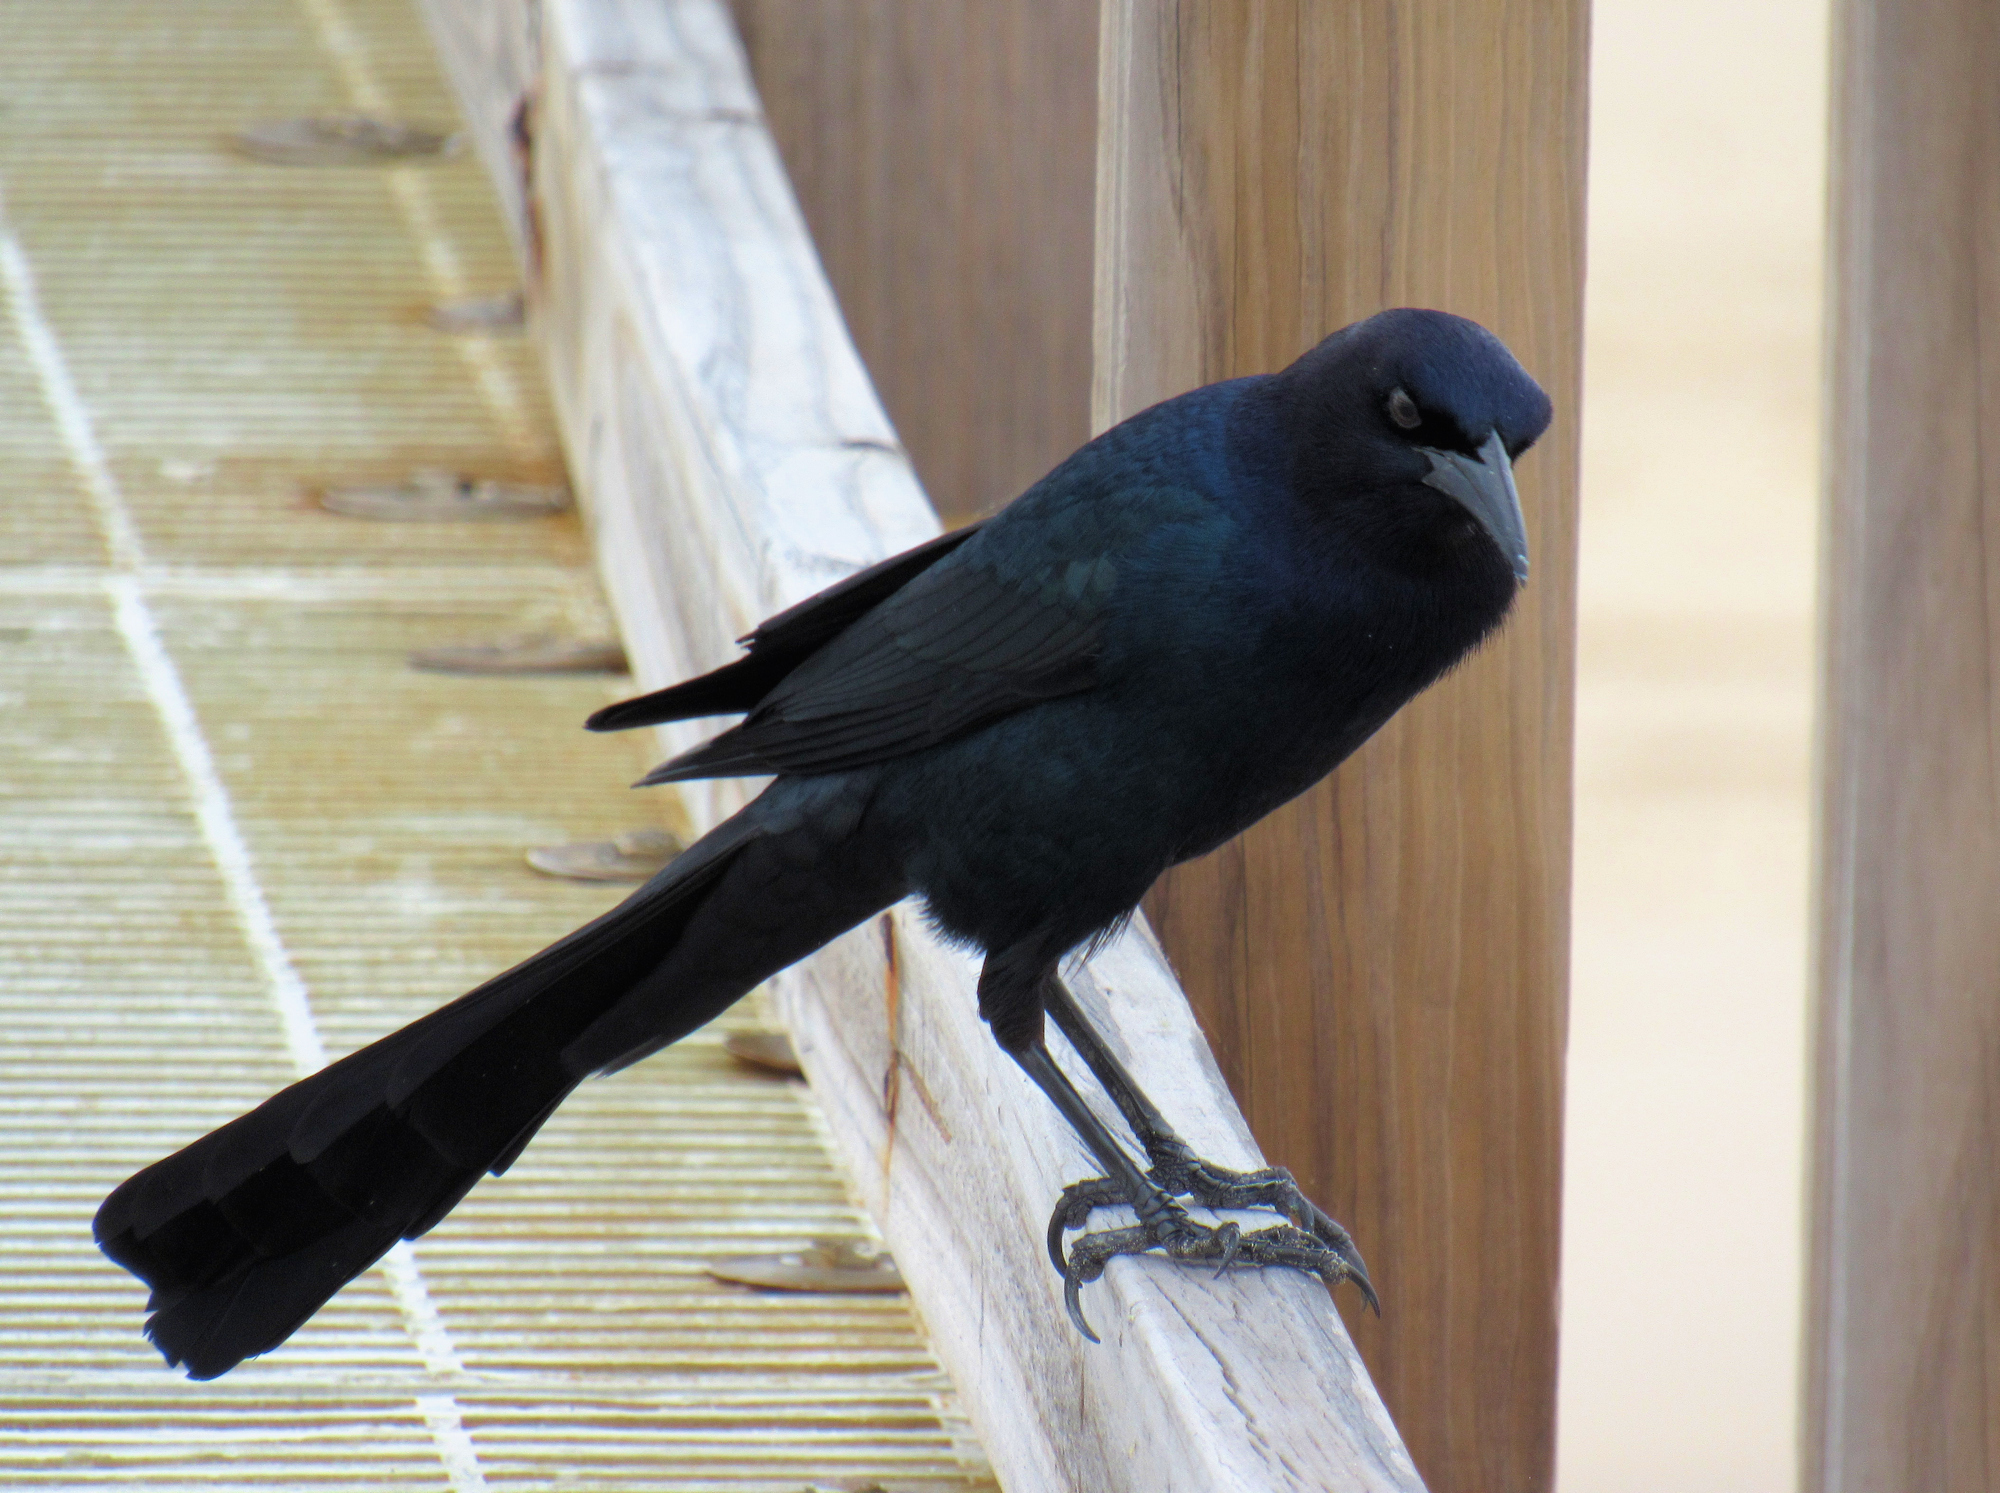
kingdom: Animalia
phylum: Chordata
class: Aves
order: Passeriformes
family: Icteridae
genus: Quiscalus
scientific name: Quiscalus major
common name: Boat-tailed grackle
